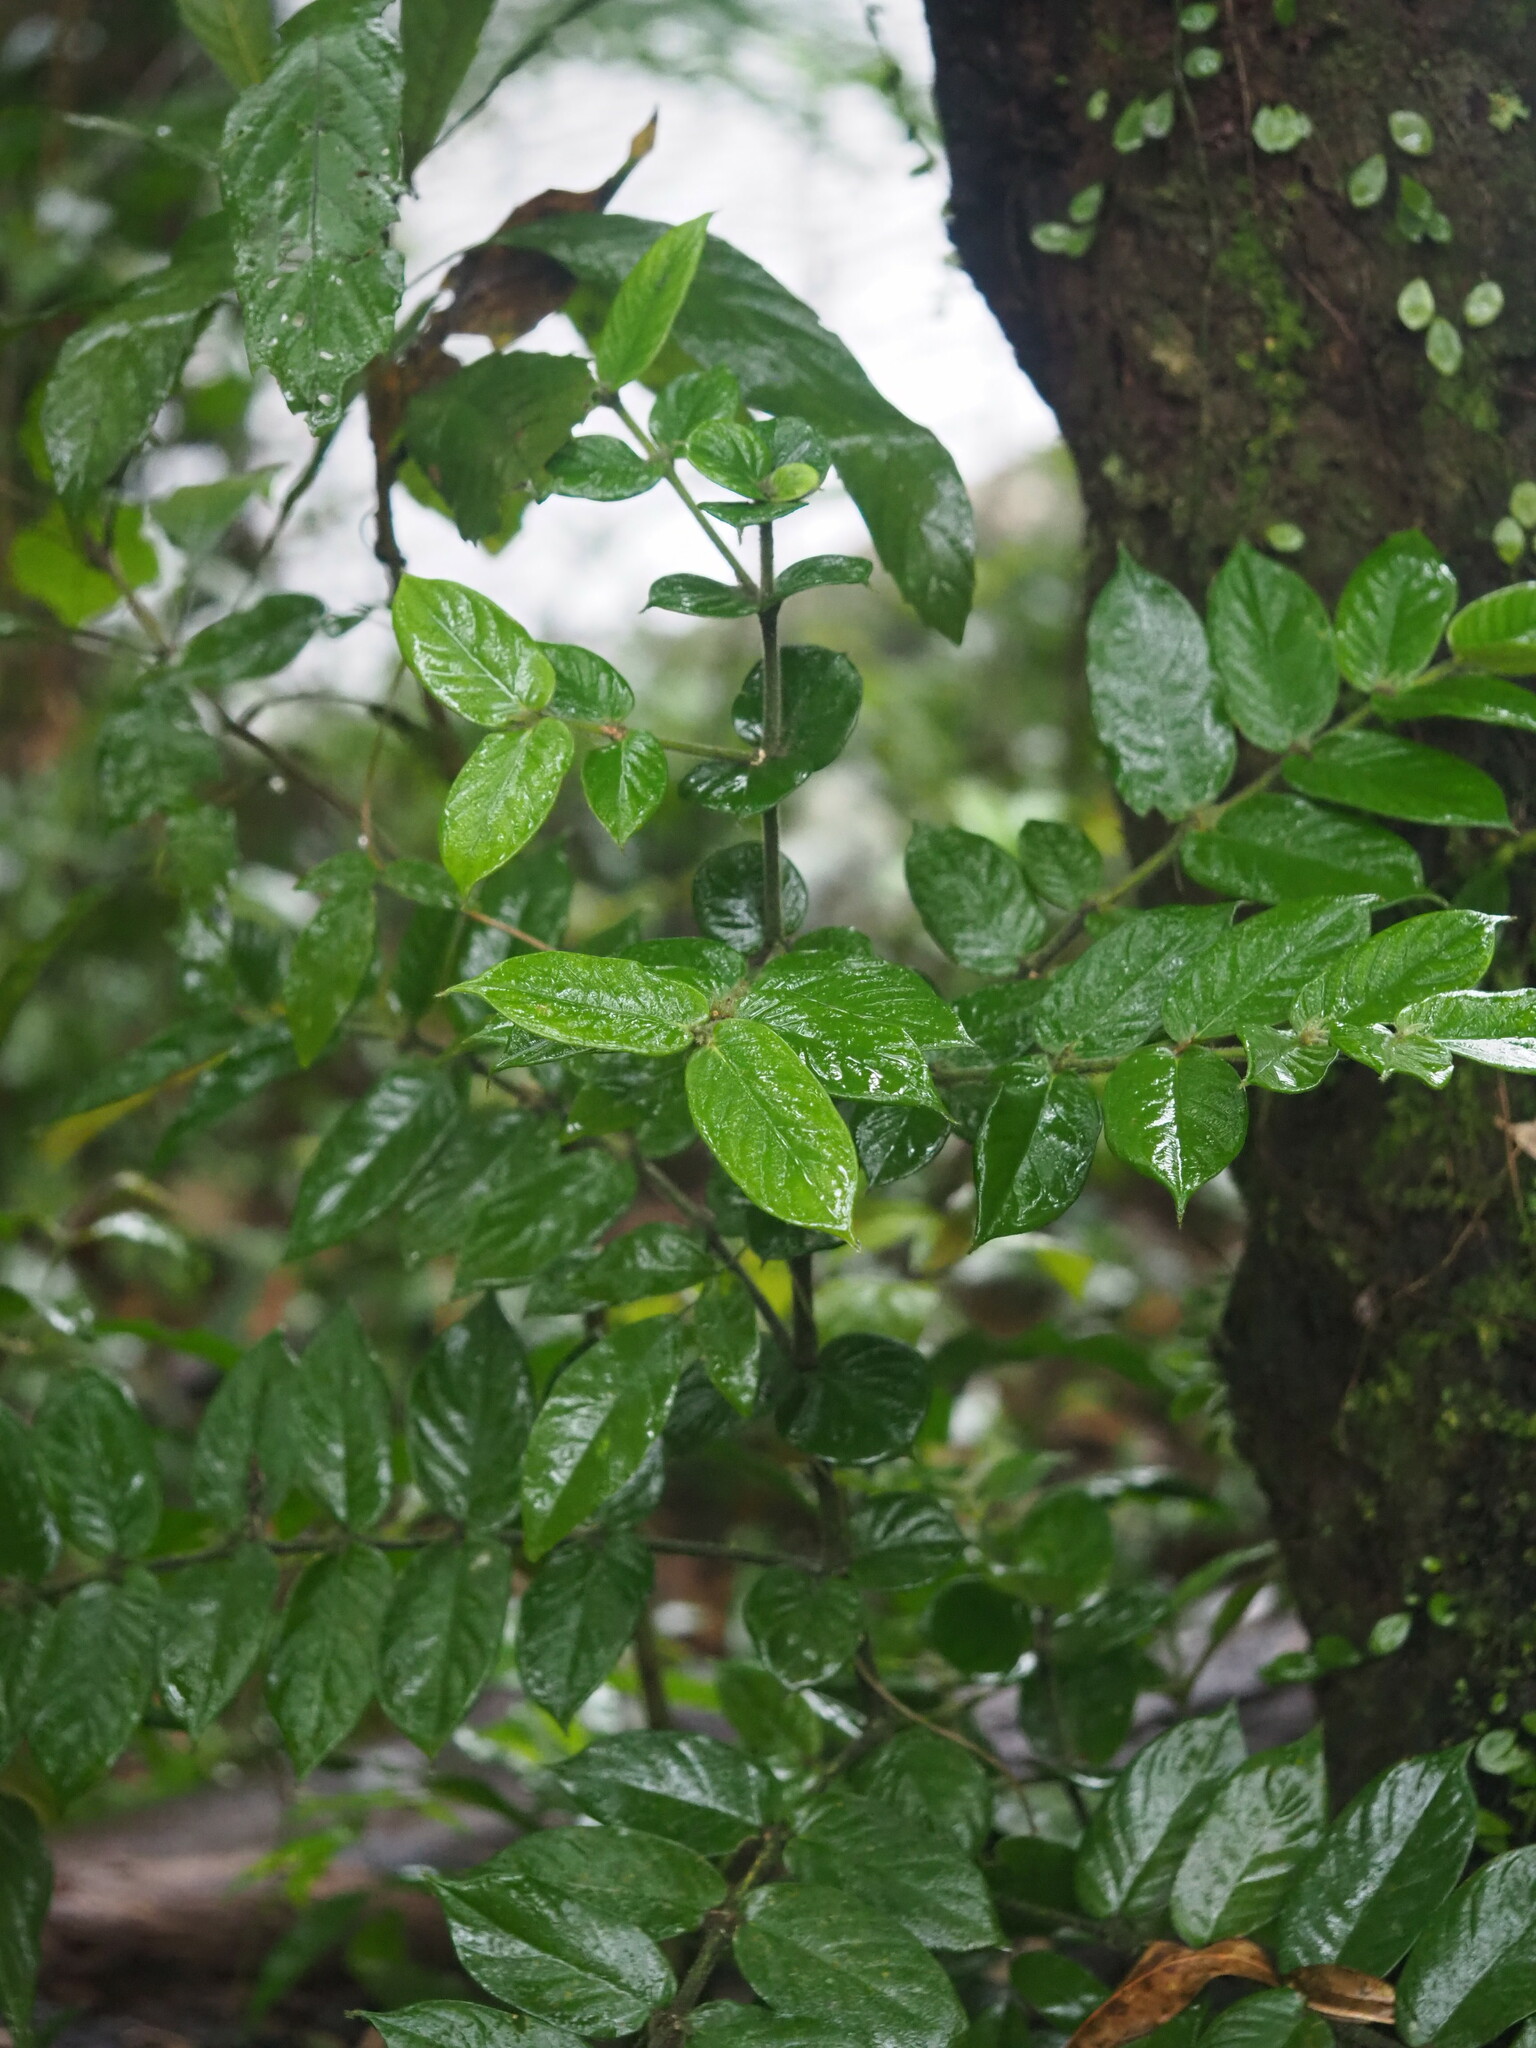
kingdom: Plantae
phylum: Tracheophyta
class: Magnoliopsida
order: Gentianales
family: Rubiaceae
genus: Lasianthus
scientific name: Lasianthus attenuatus
